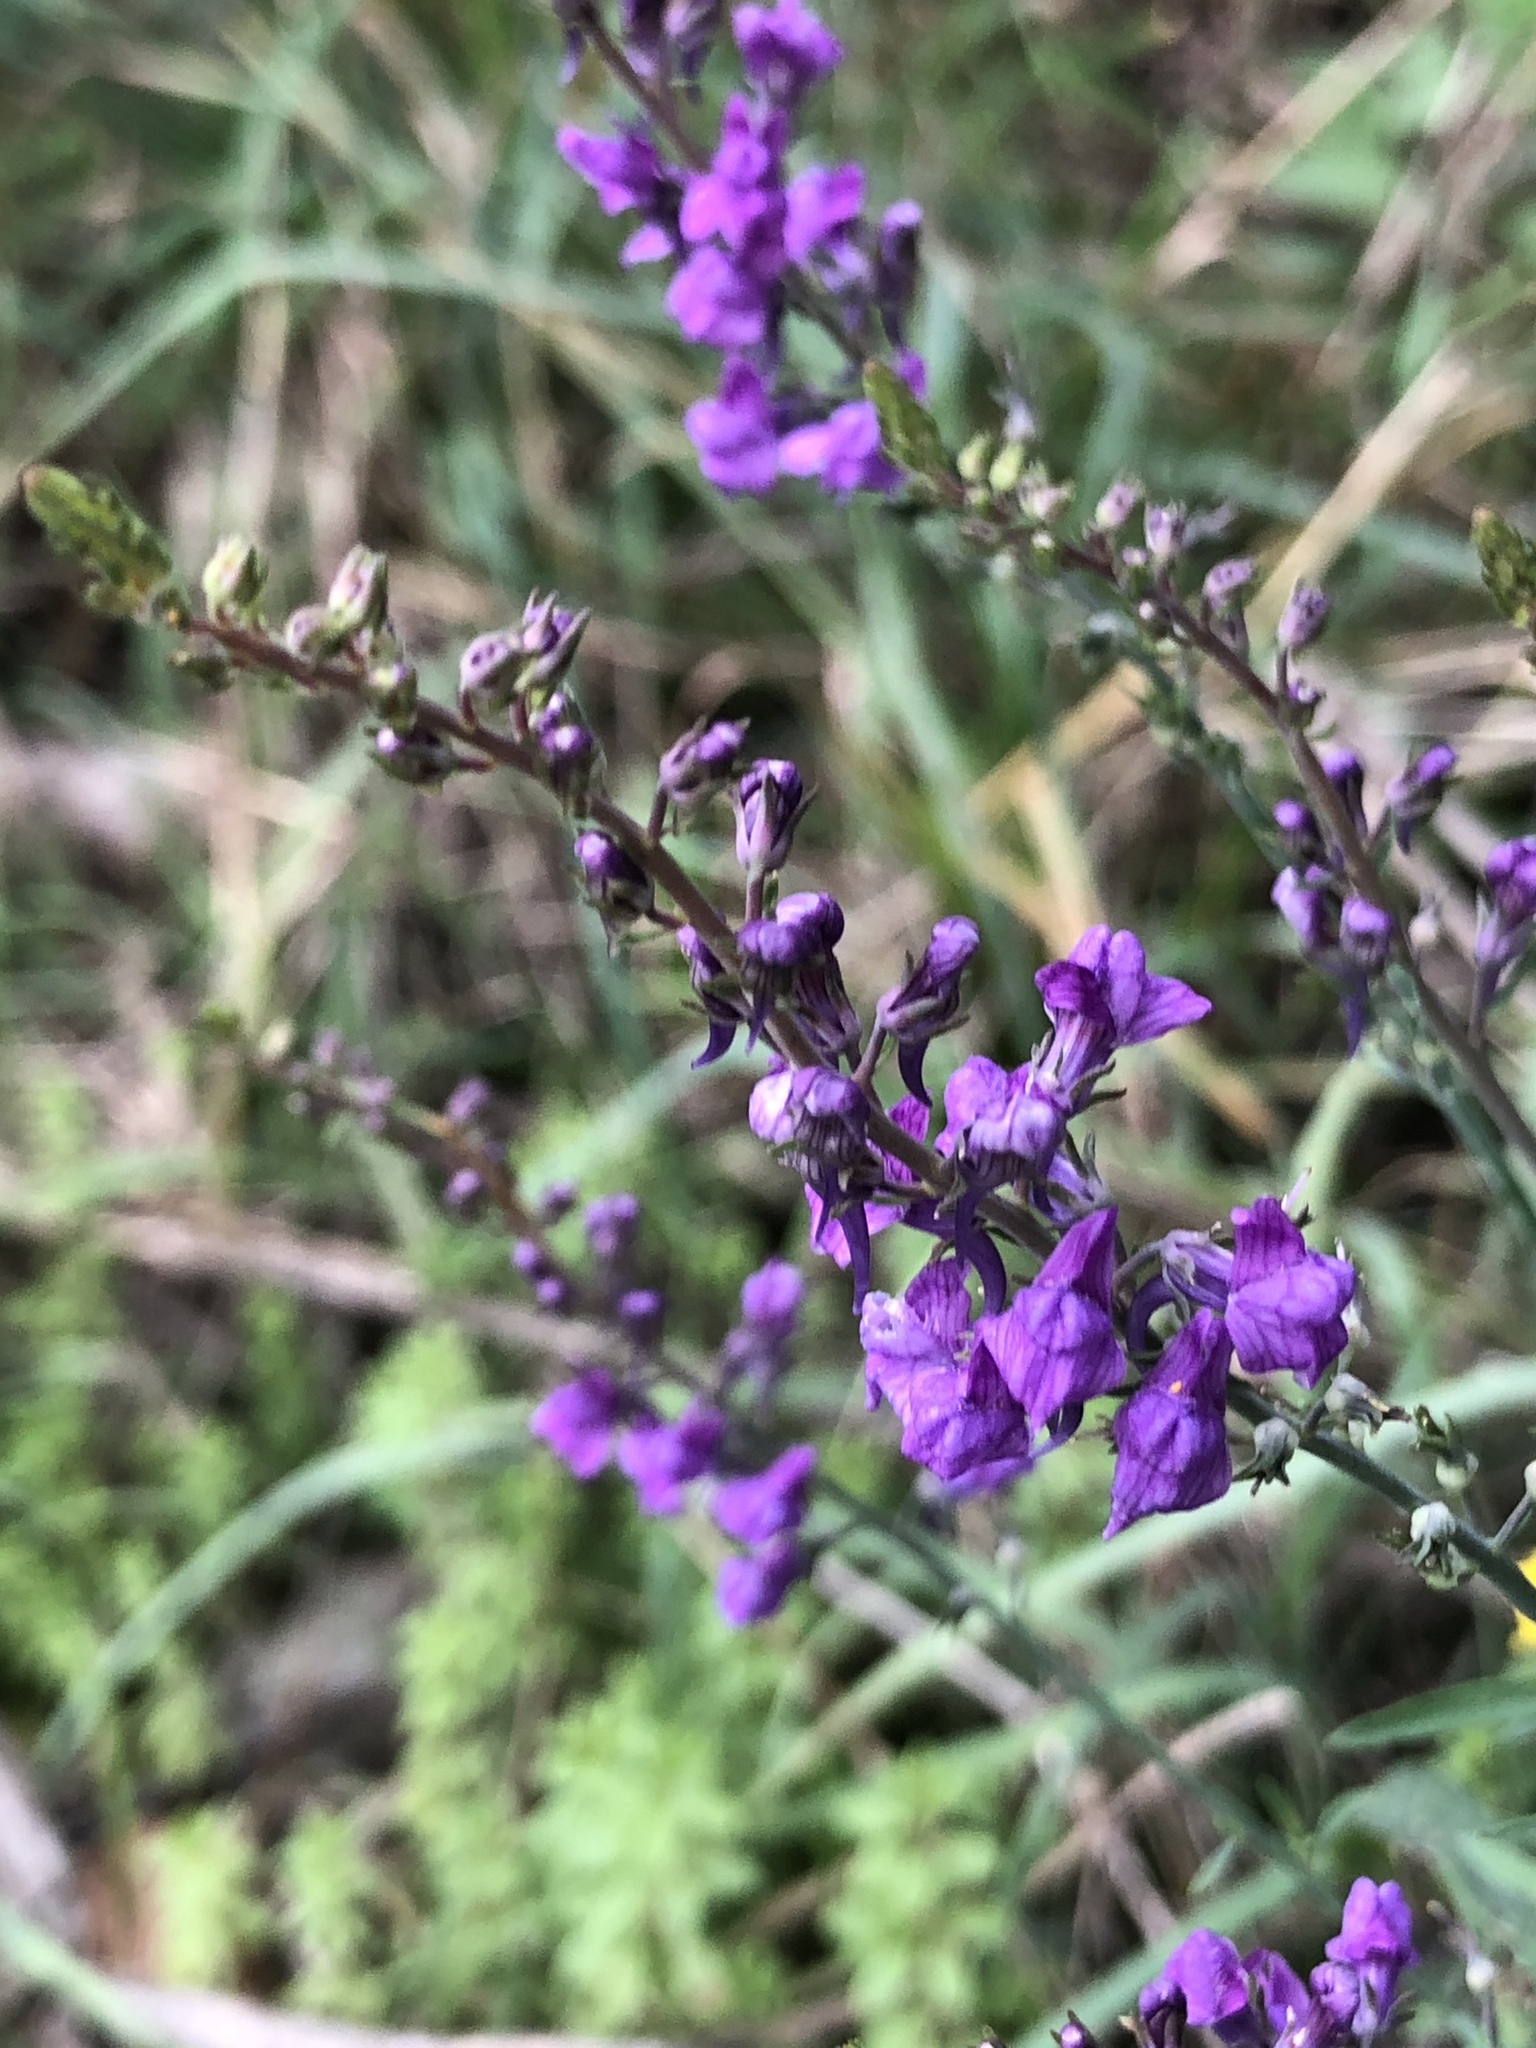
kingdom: Plantae
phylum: Tracheophyta
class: Magnoliopsida
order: Lamiales
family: Plantaginaceae
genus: Linaria
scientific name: Linaria purpurea
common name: Purple toadflax
